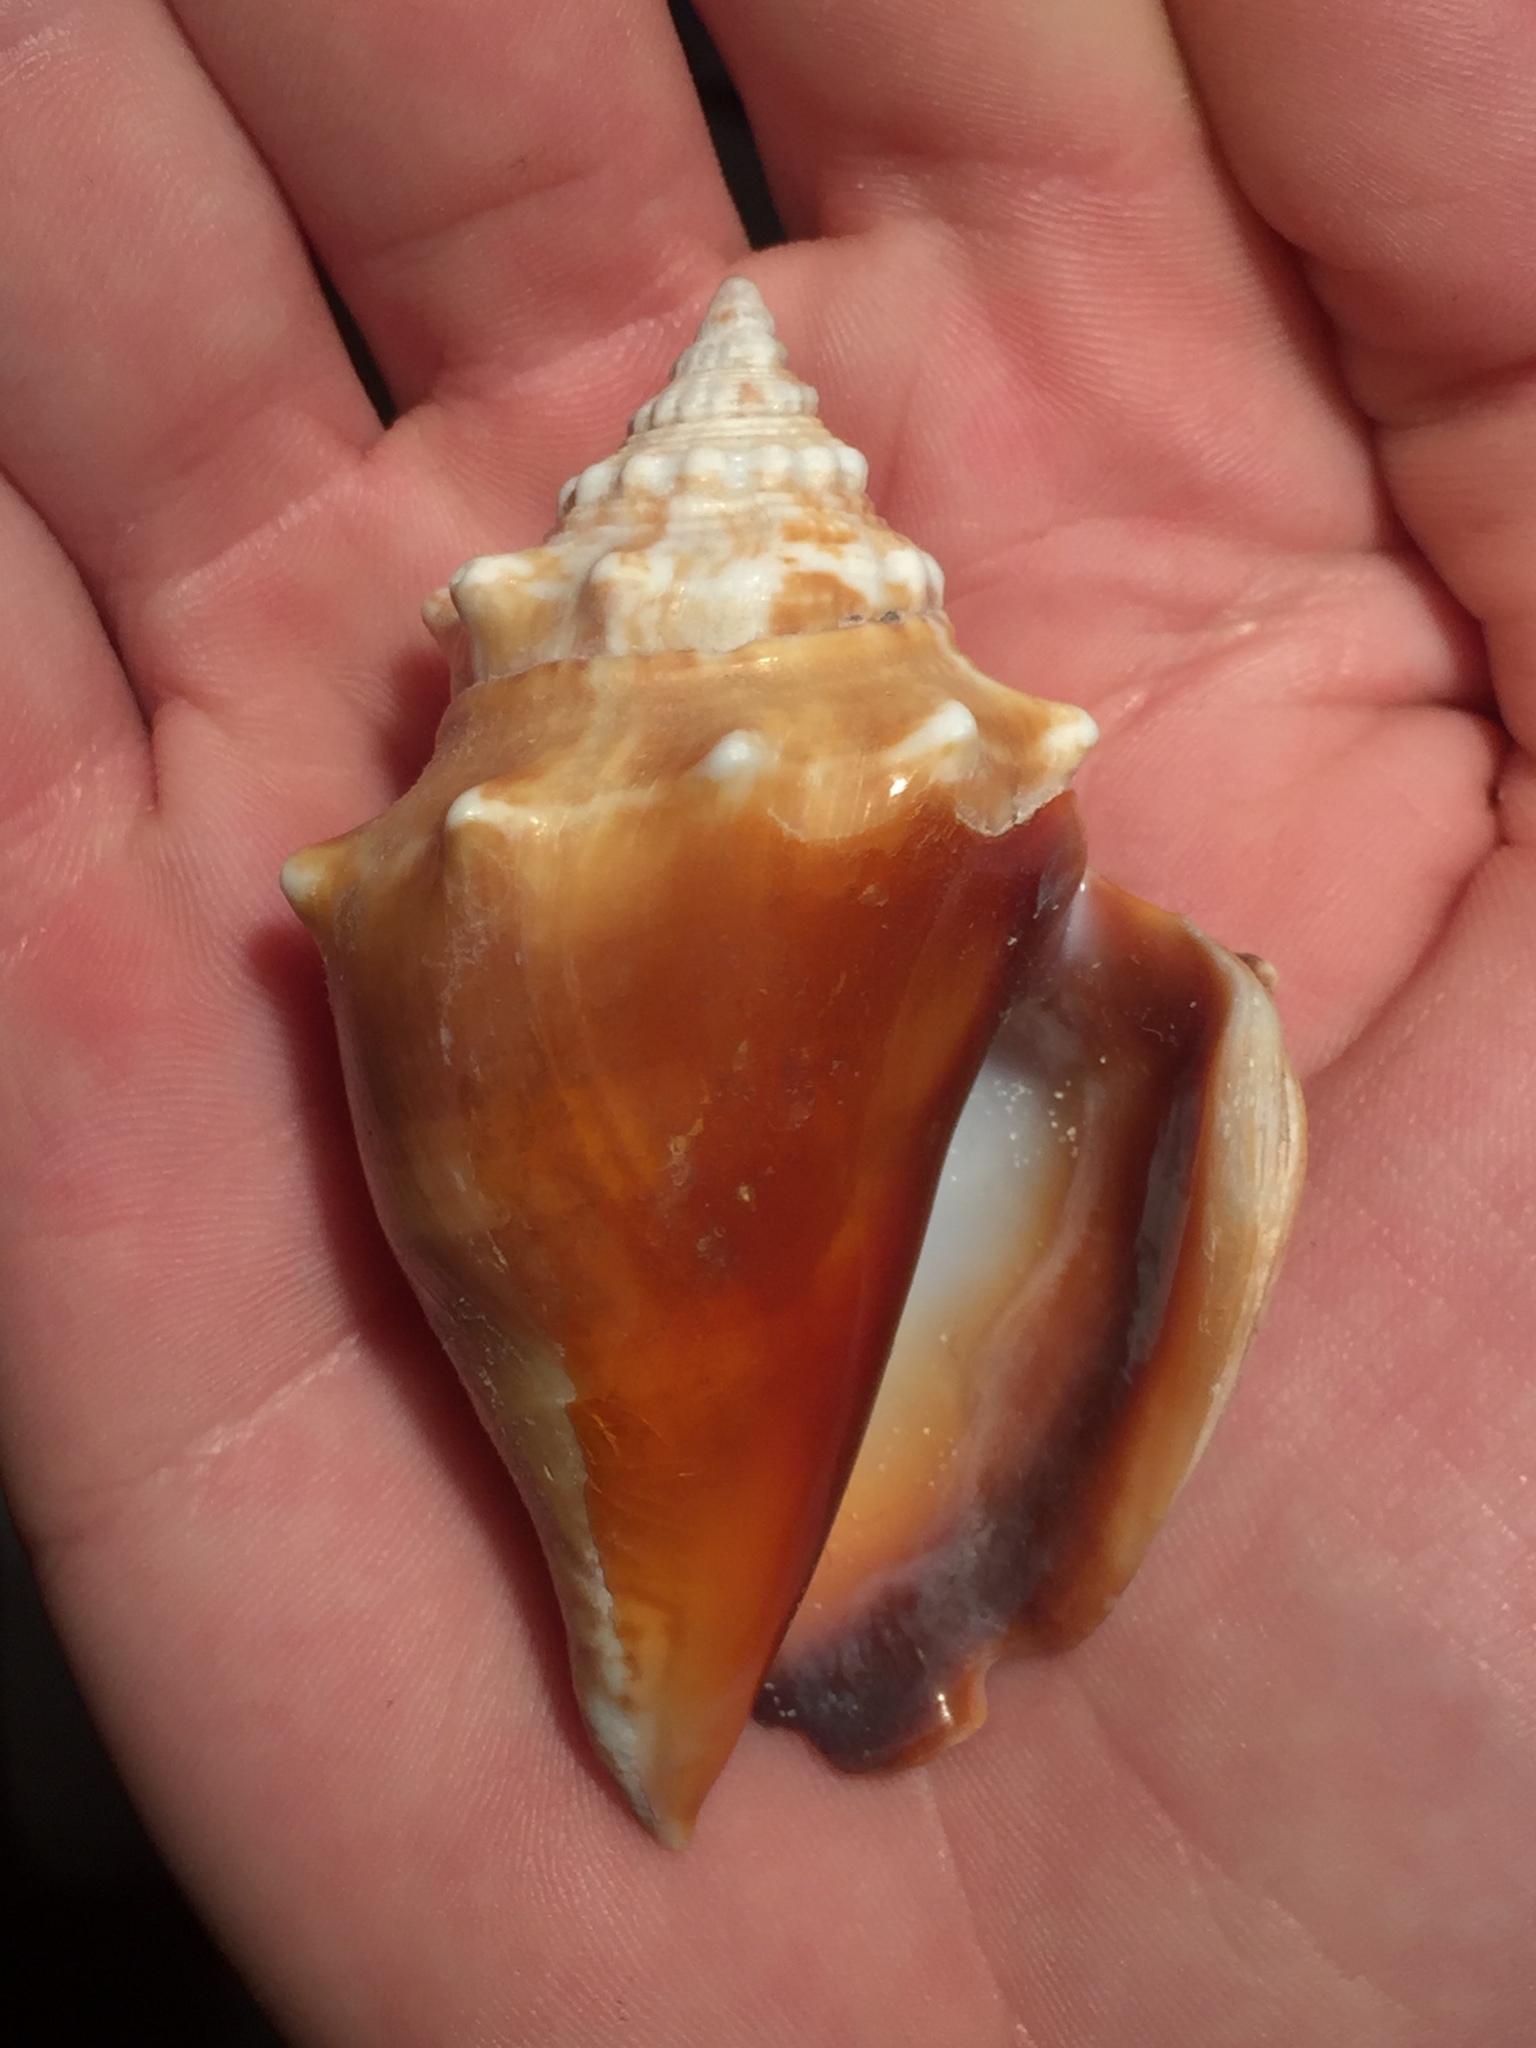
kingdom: Animalia
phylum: Mollusca
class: Gastropoda
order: Littorinimorpha
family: Strombidae
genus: Strombus
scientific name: Strombus alatus
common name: Florida fighting conch
